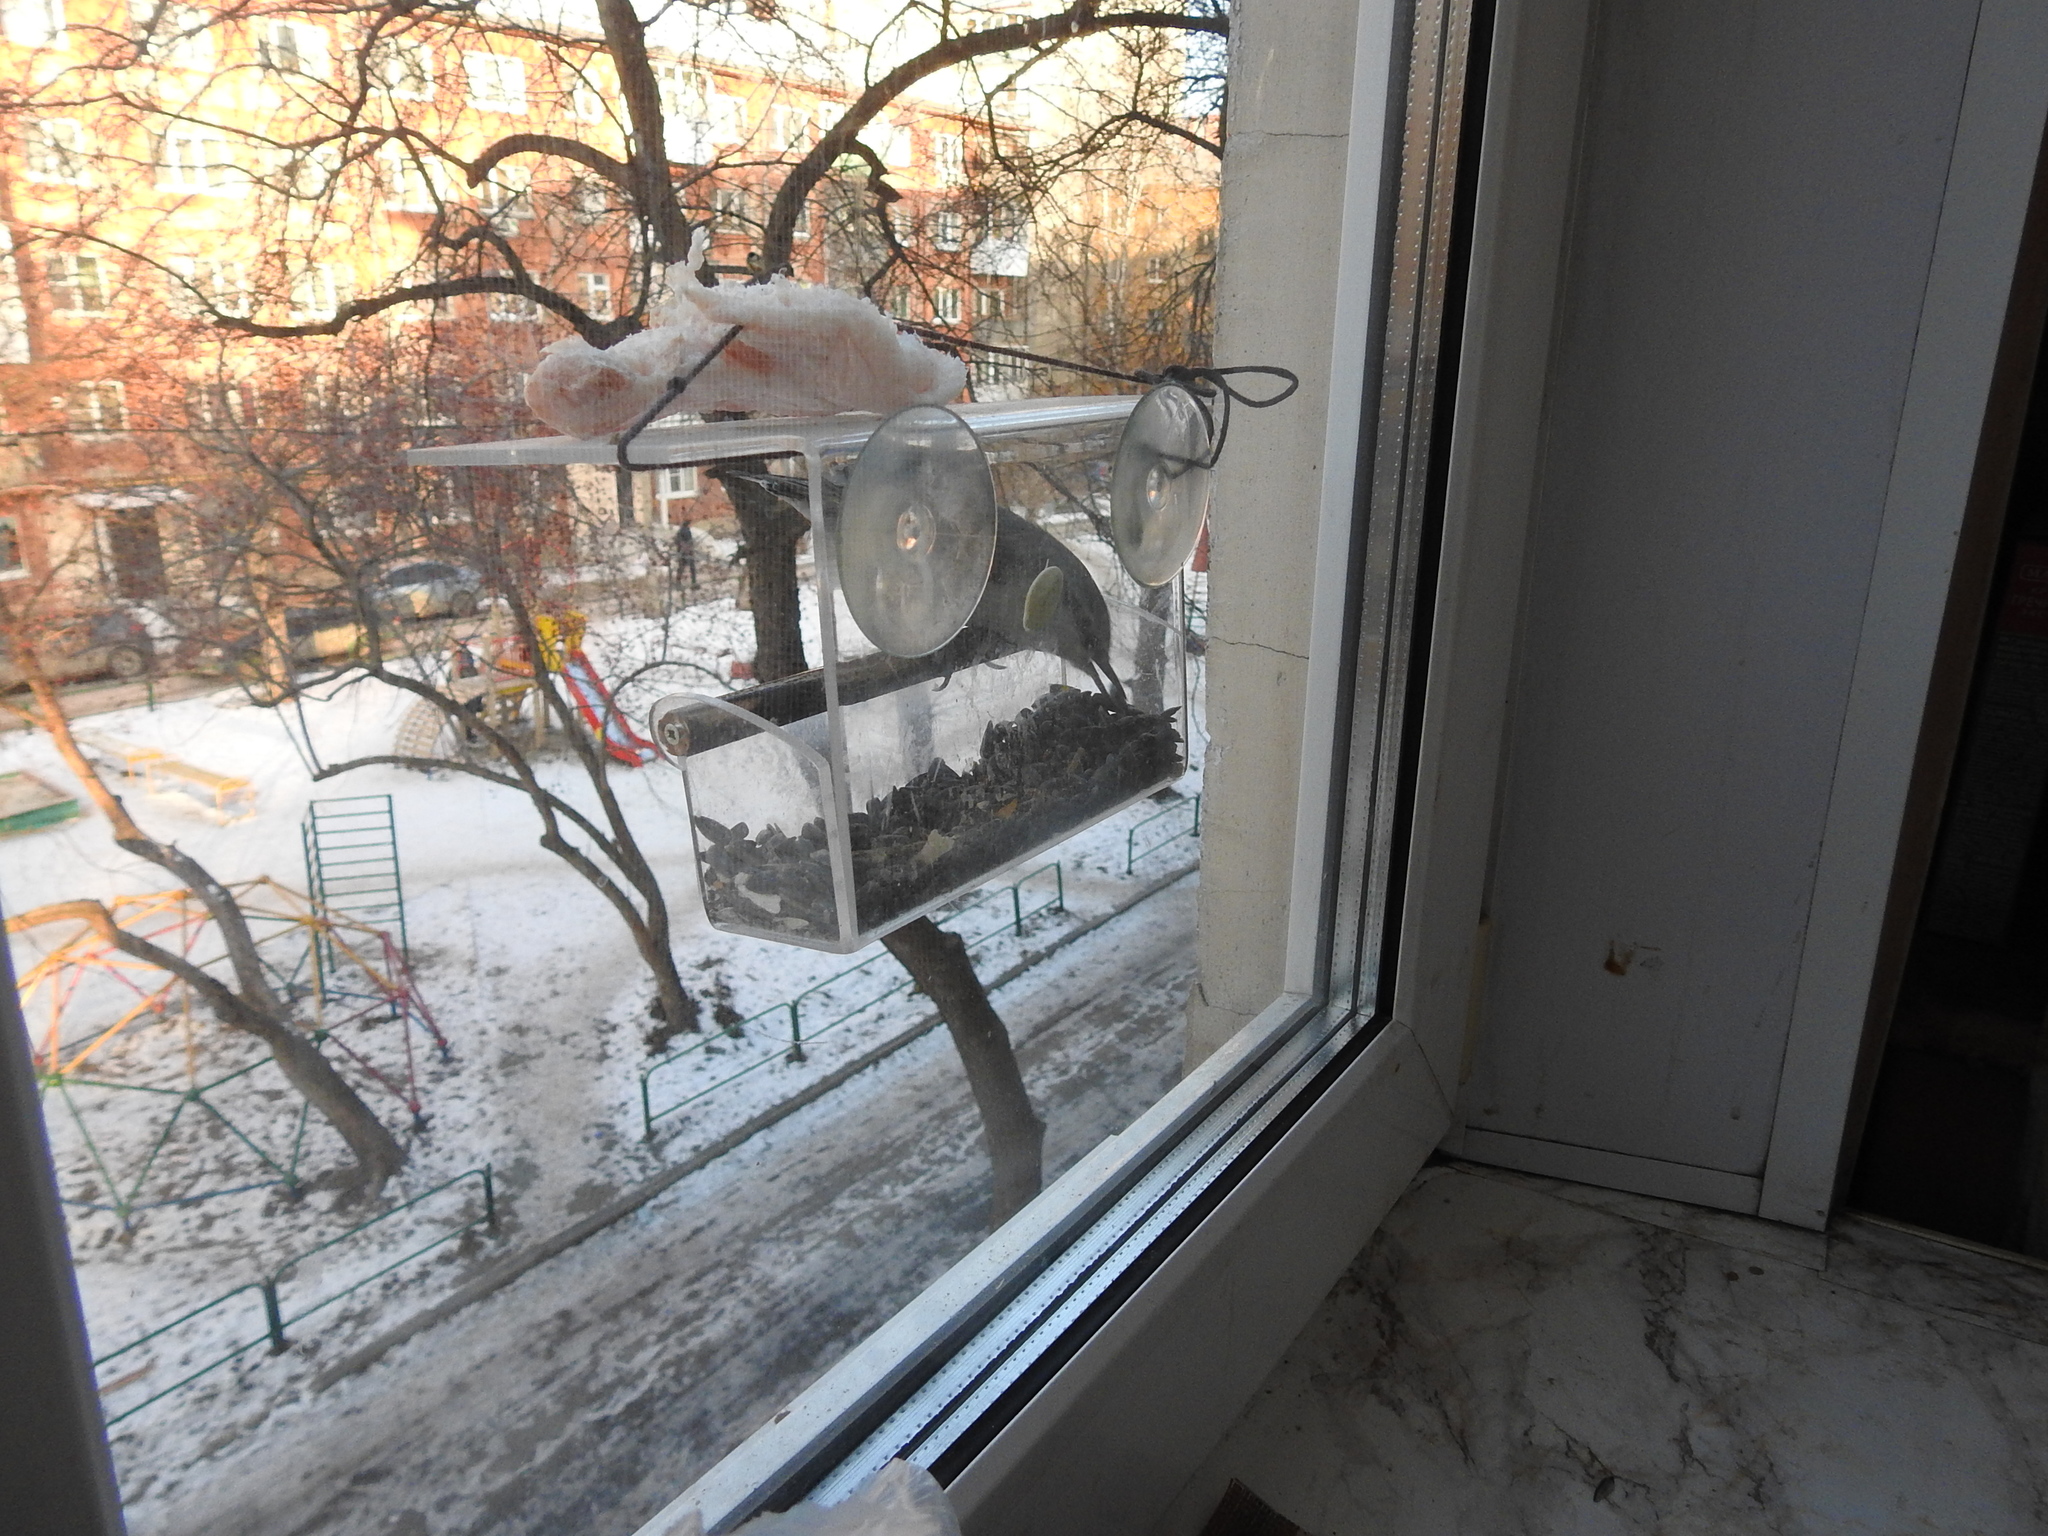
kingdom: Animalia
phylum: Chordata
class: Aves
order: Passeriformes
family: Sittidae
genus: Sitta
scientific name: Sitta europaea
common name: Eurasian nuthatch
